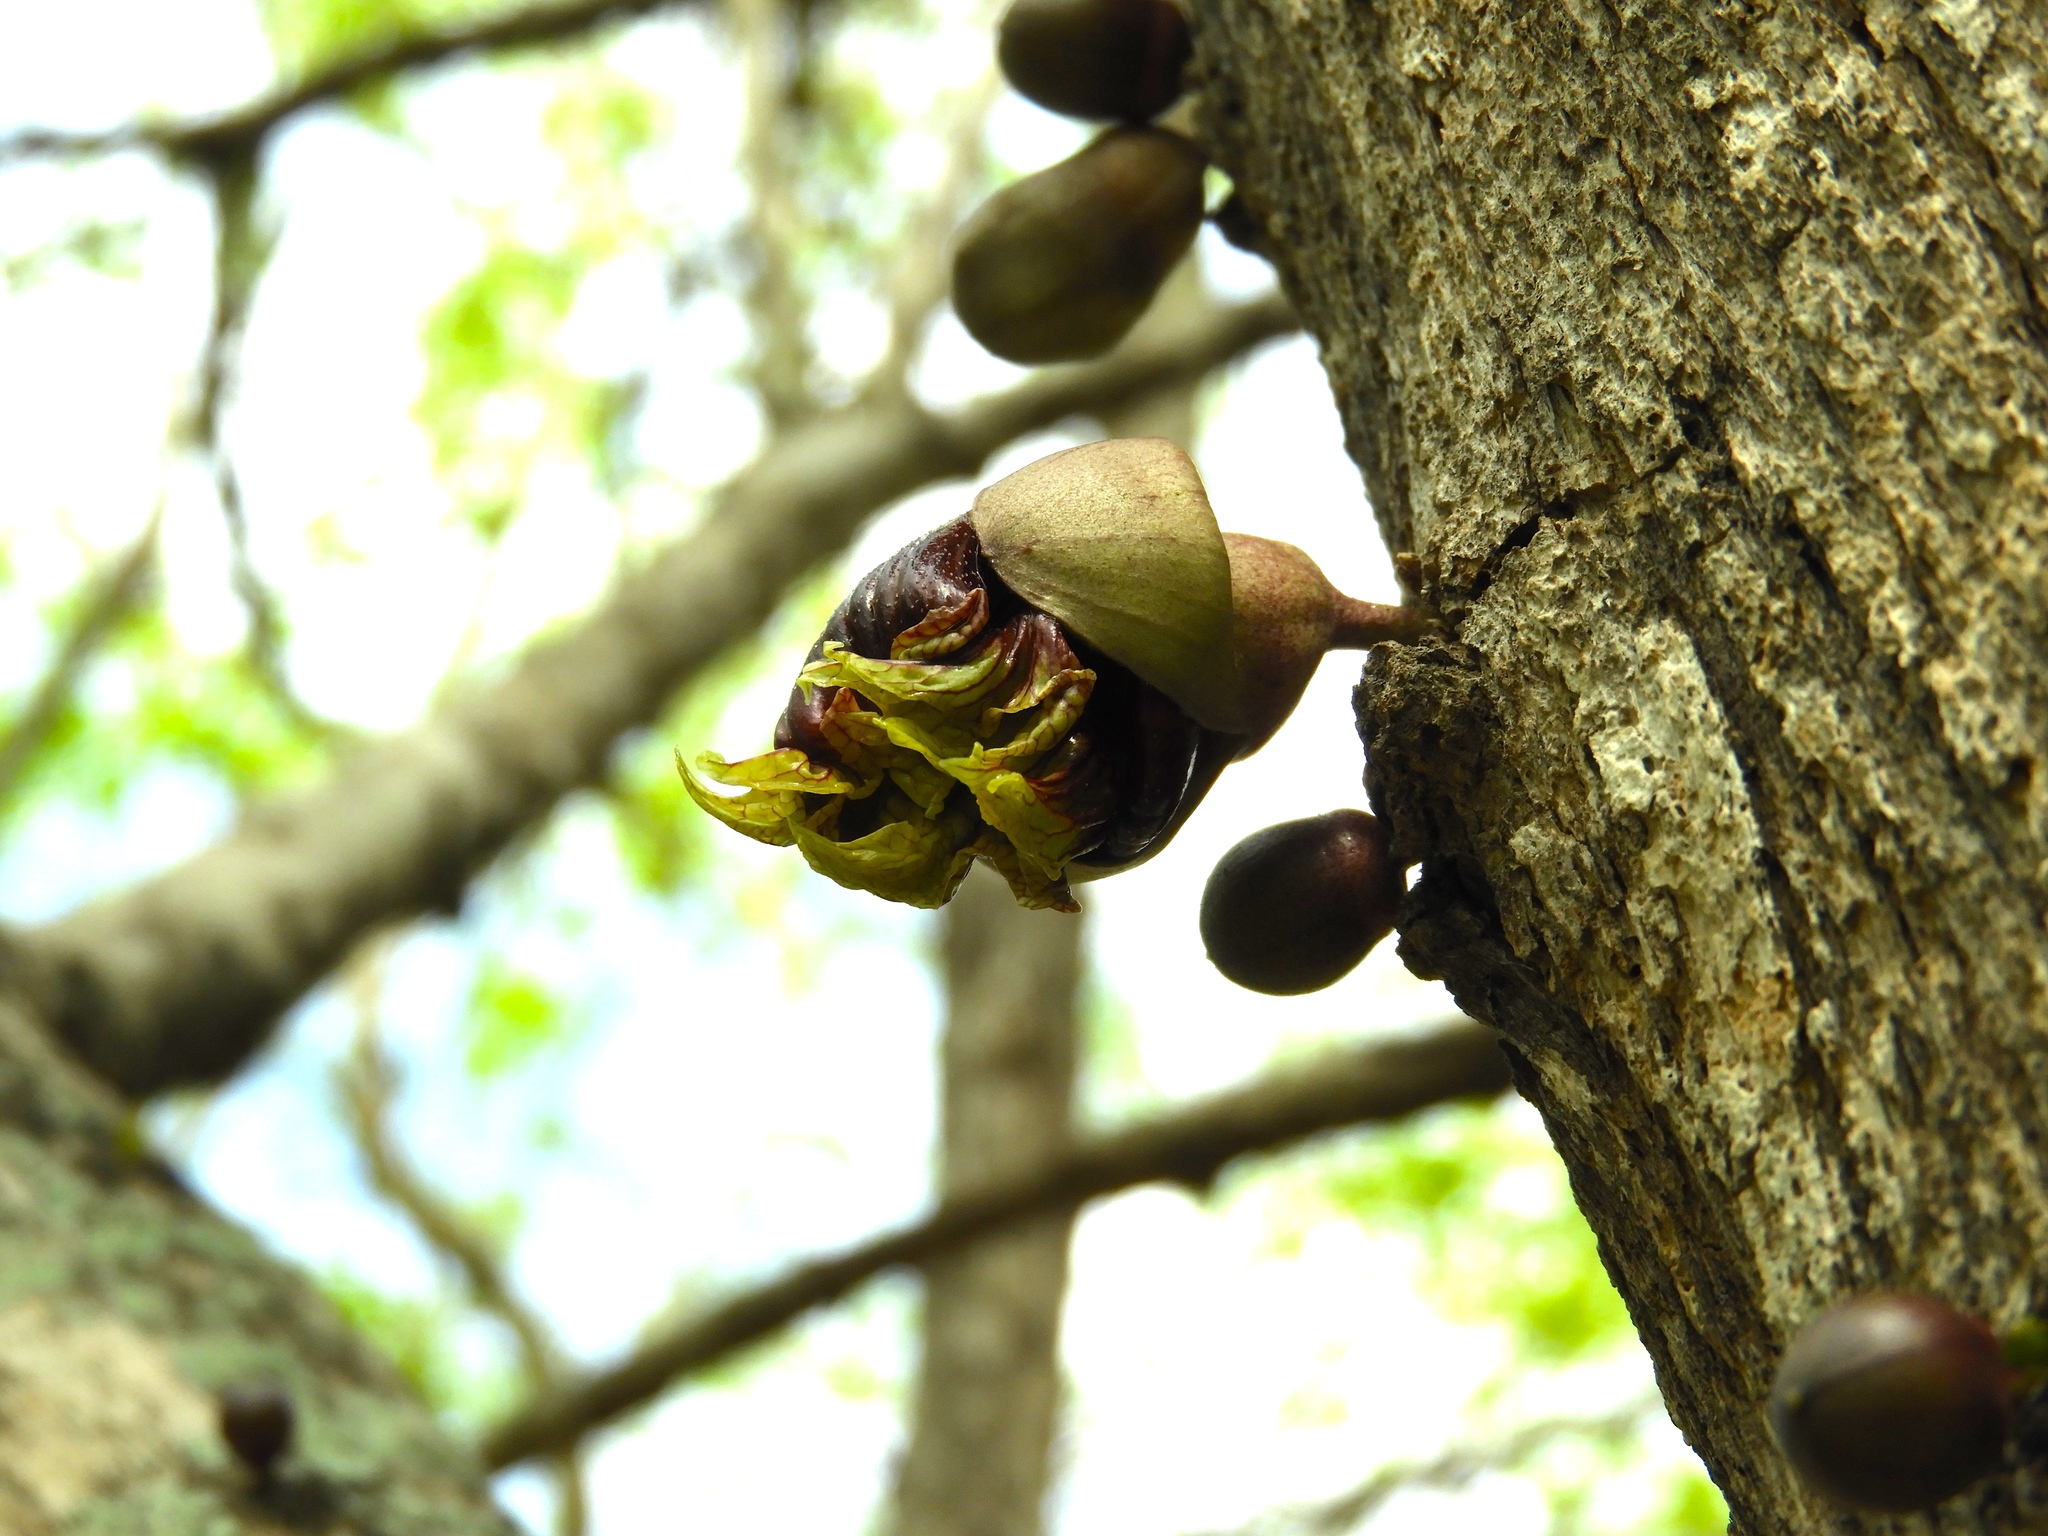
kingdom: Plantae
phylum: Tracheophyta
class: Magnoliopsida
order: Lamiales
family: Bignoniaceae
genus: Crescentia
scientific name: Crescentia alata
